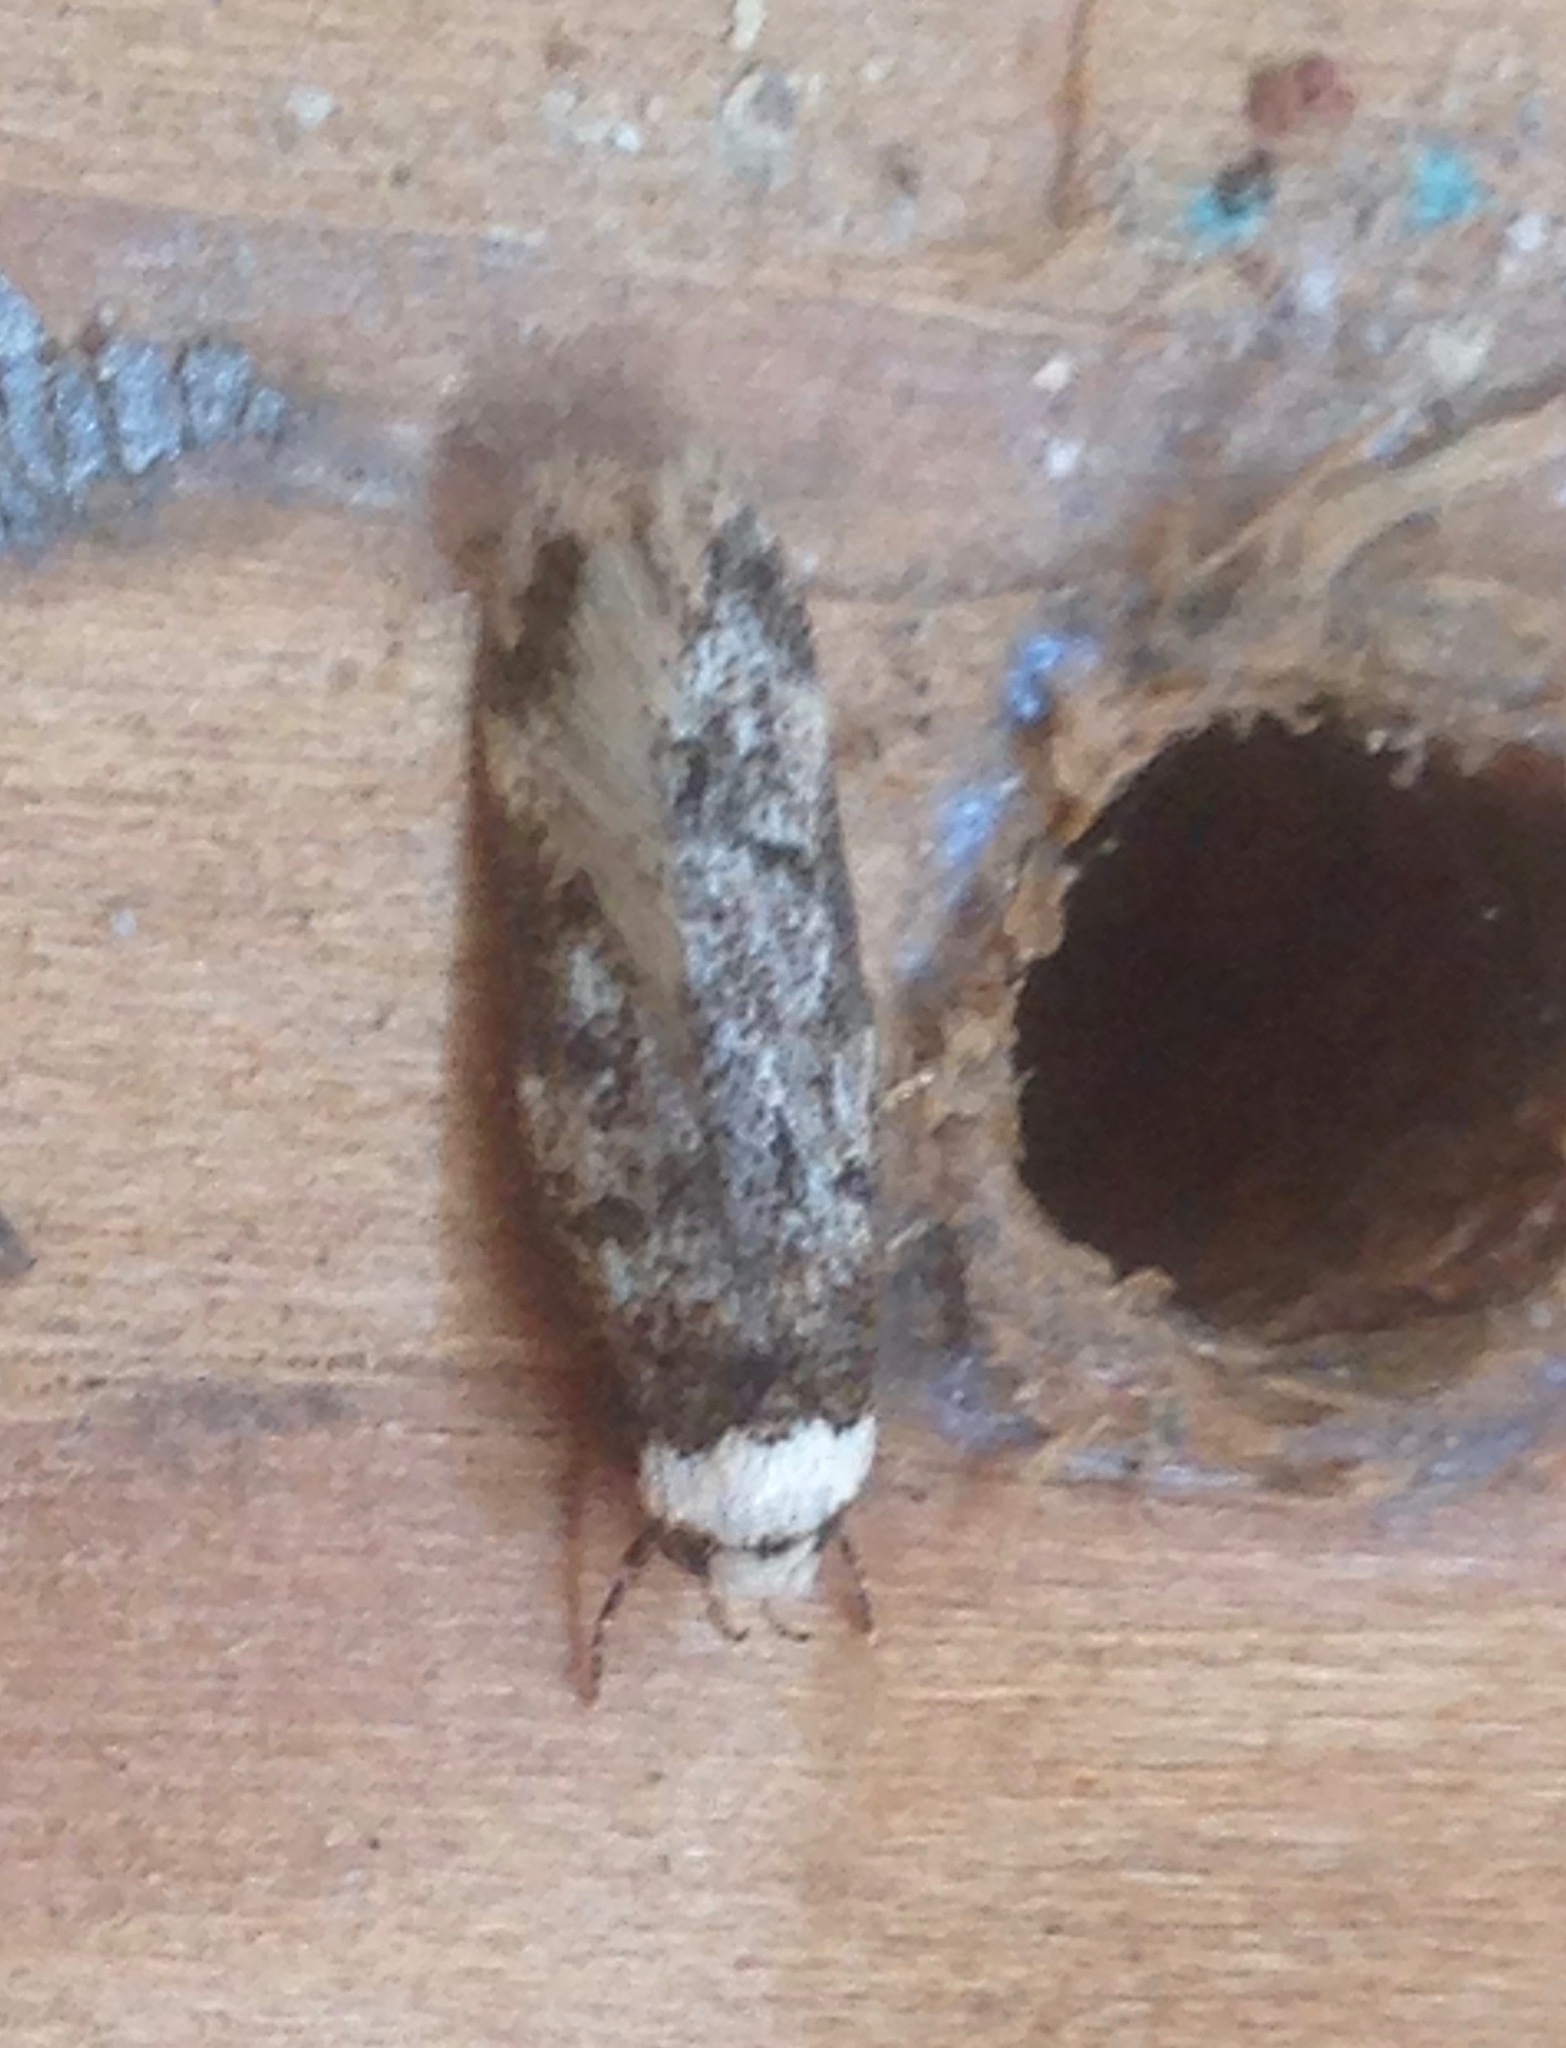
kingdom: Animalia
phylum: Arthropoda
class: Insecta
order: Lepidoptera
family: Oecophoridae
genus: Endrosis
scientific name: Endrosis sarcitrella
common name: White-shouldered house moth
